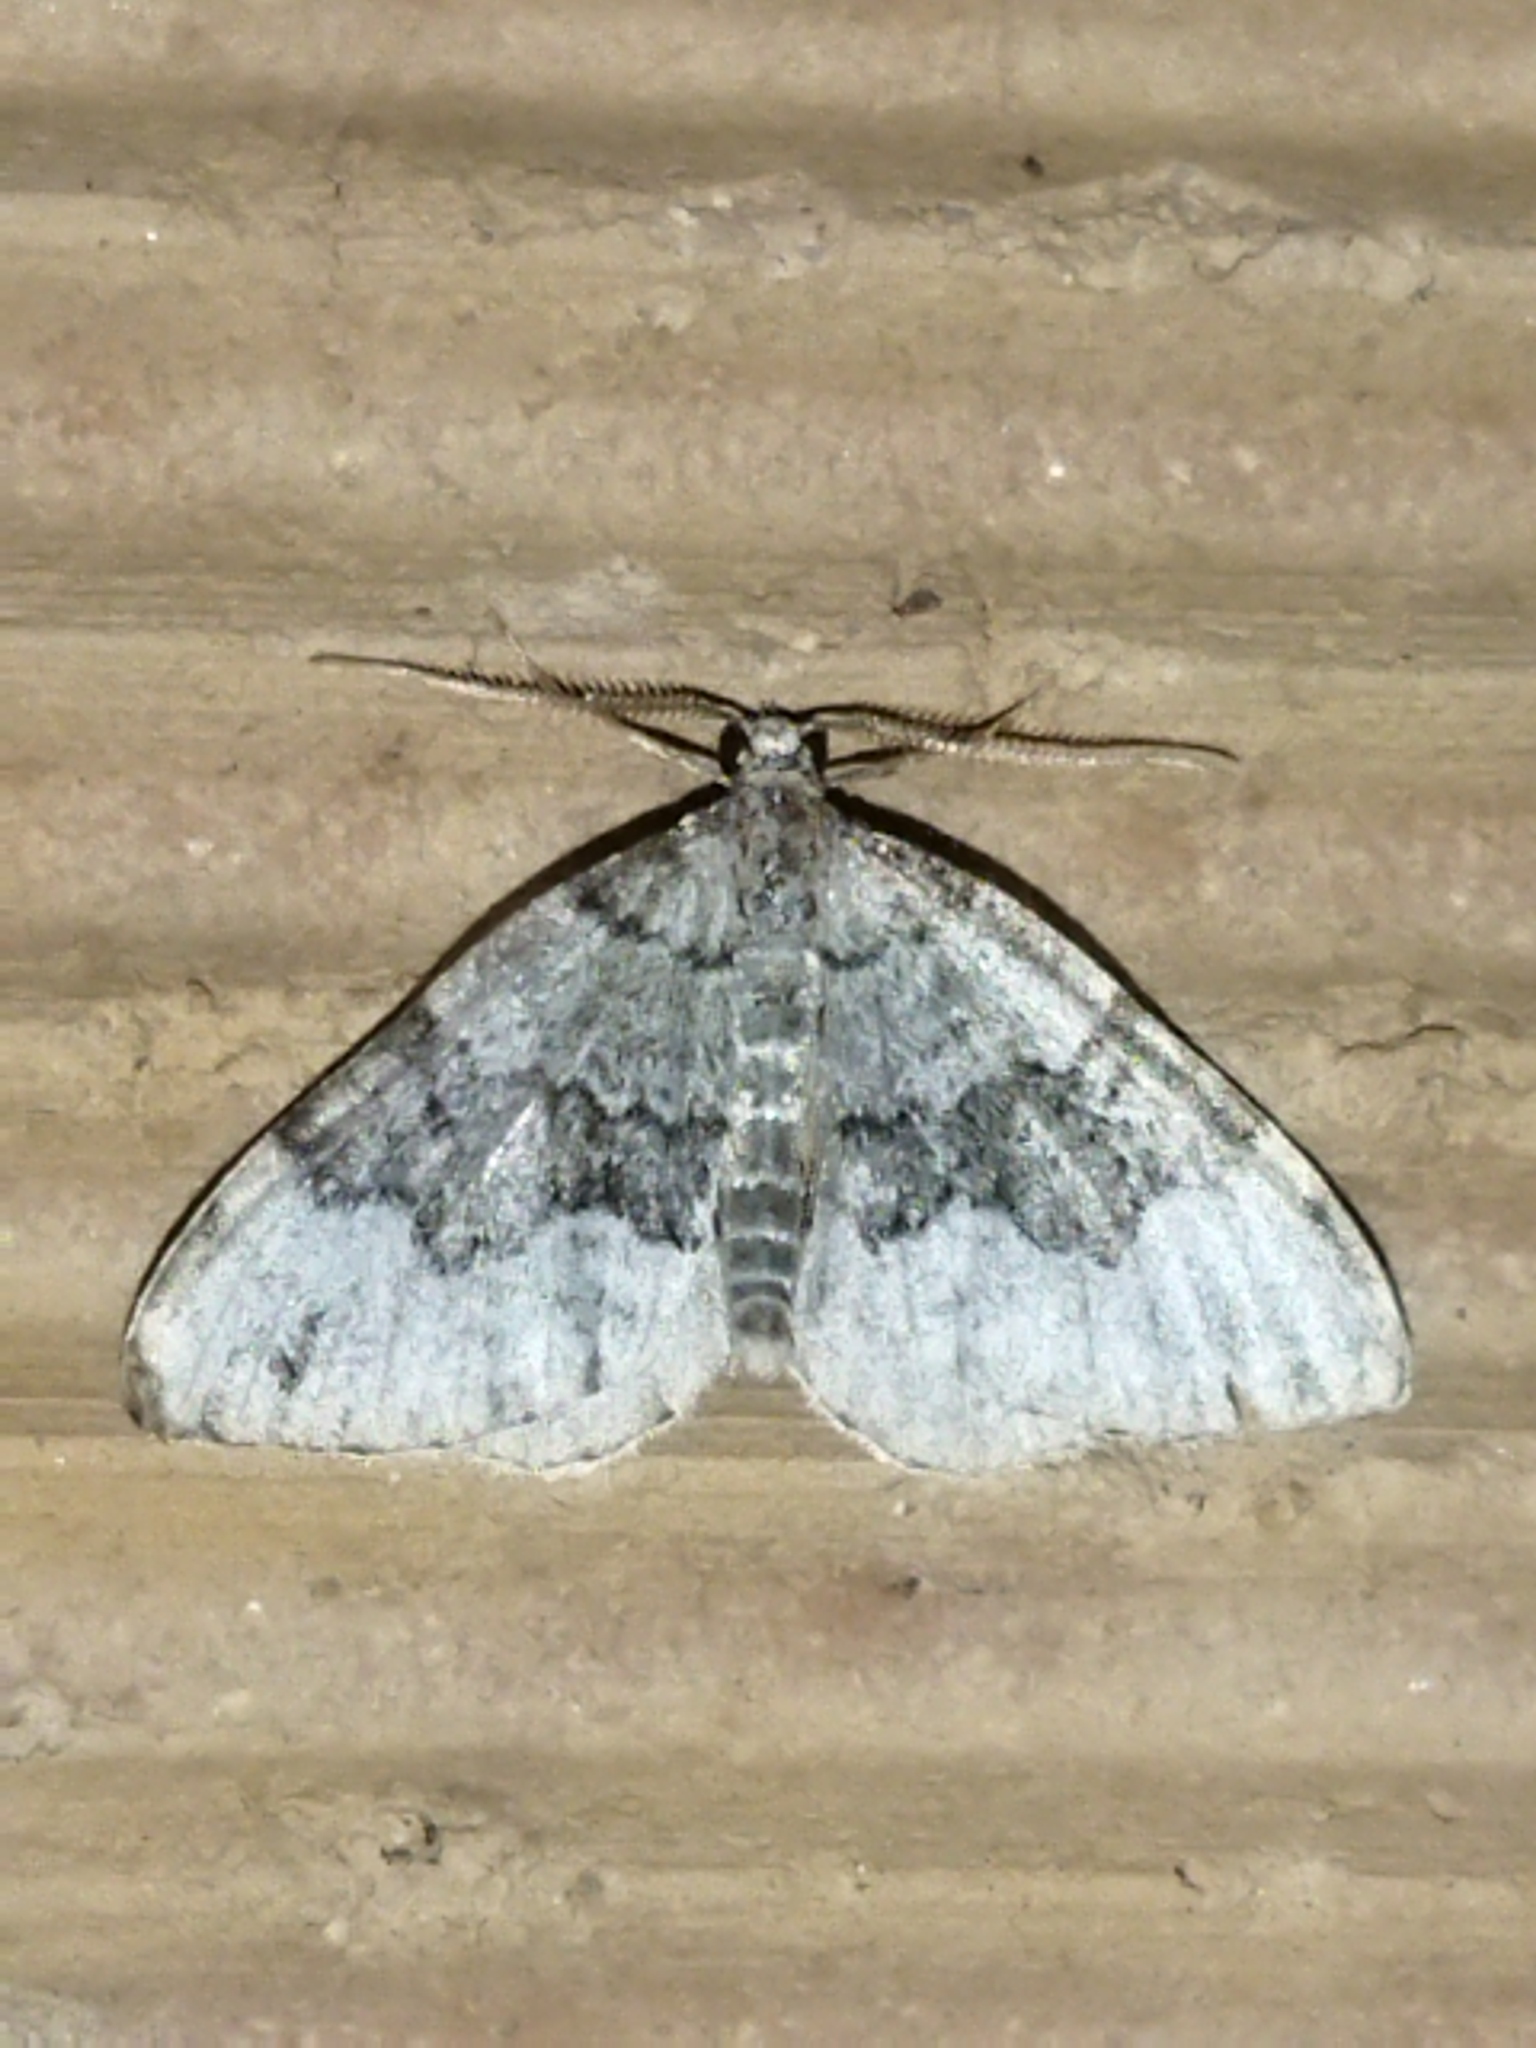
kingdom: Animalia
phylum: Arthropoda
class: Insecta
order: Lepidoptera
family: Geometridae
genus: Colostygia
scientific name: Colostygia aptata
